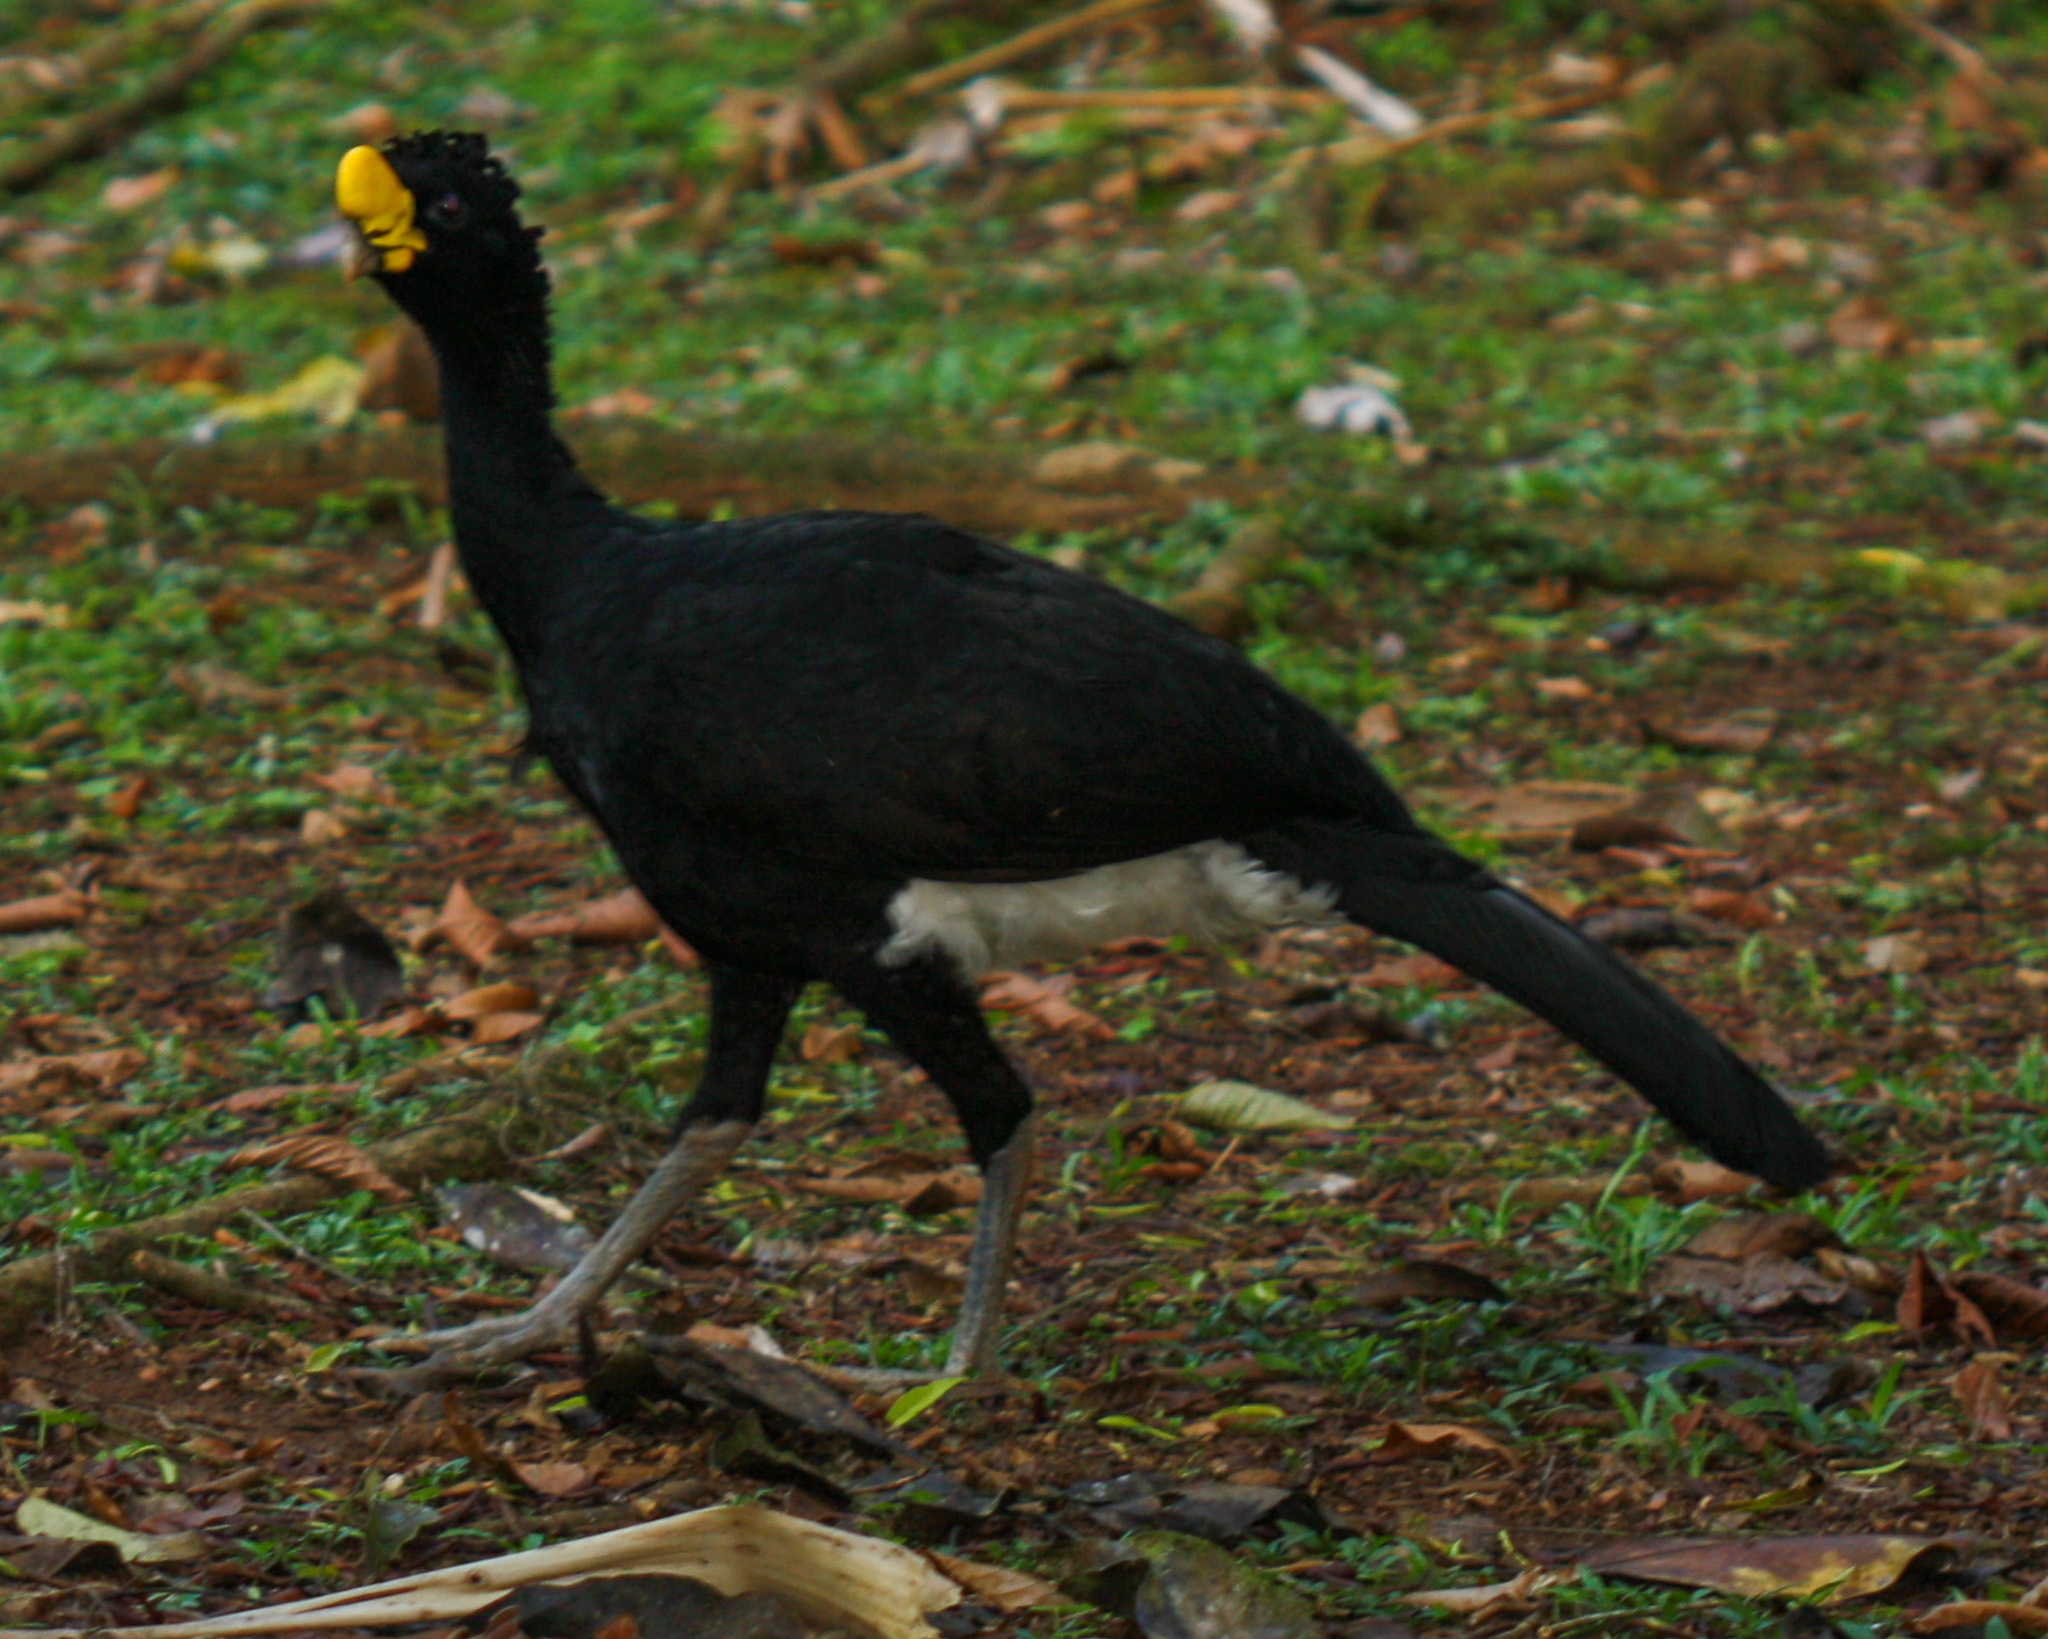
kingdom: Animalia
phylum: Chordata
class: Aves
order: Galliformes
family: Cracidae
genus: Crax
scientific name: Crax rubra
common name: Great curassow
